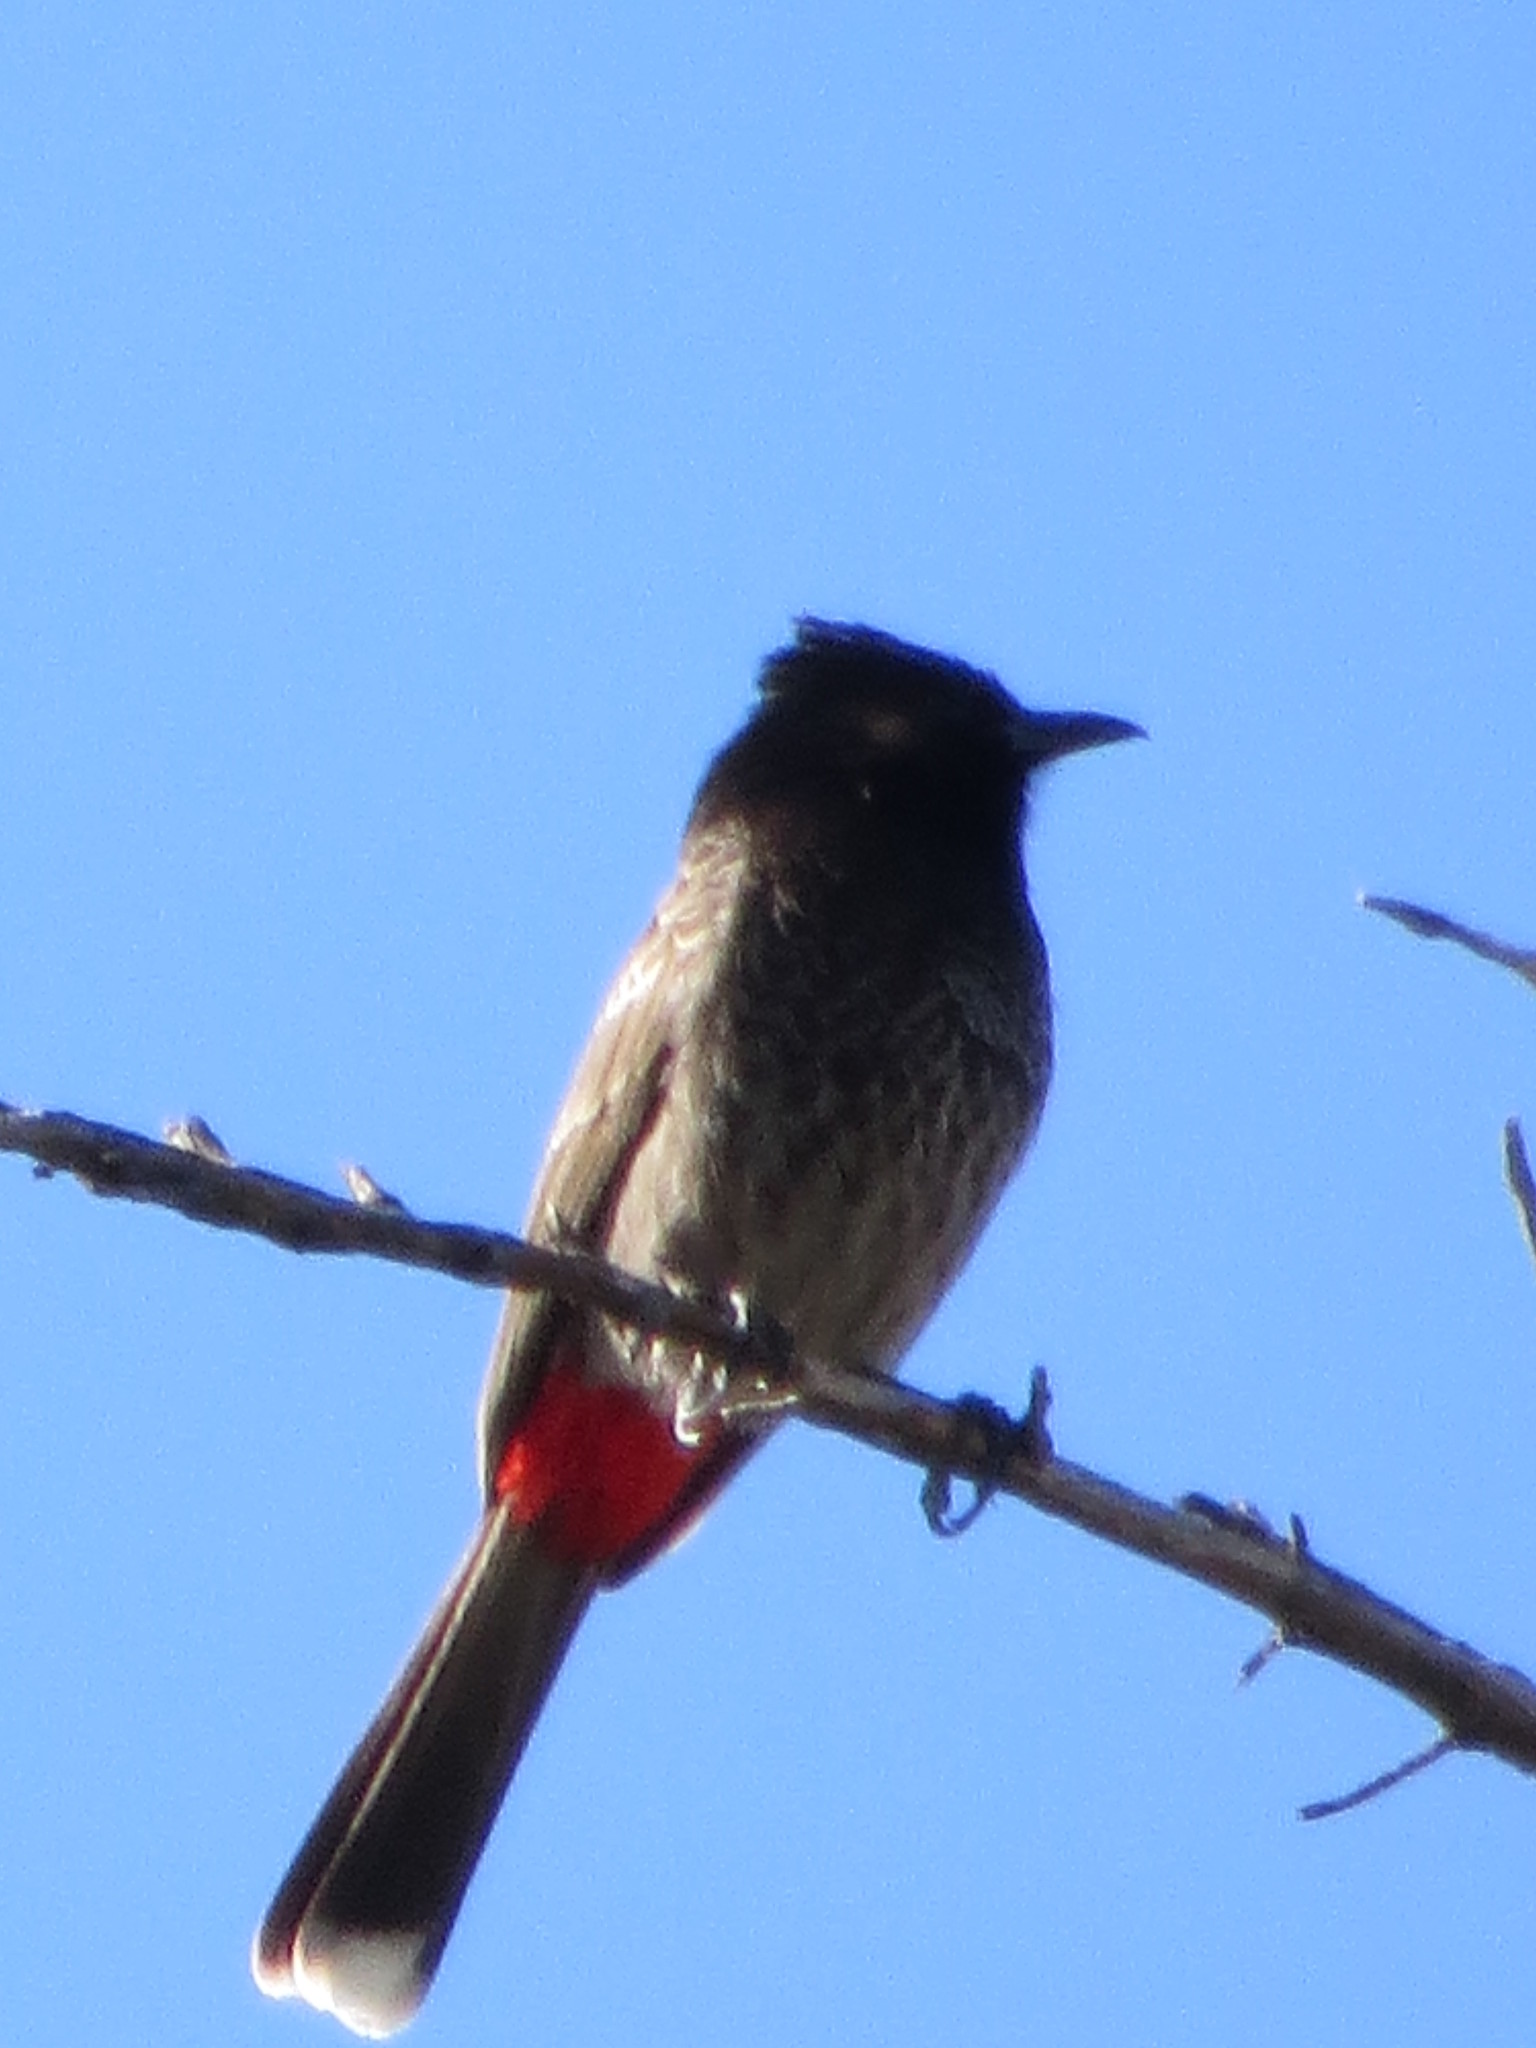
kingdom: Animalia
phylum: Chordata
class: Aves
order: Passeriformes
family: Pycnonotidae
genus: Pycnonotus
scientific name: Pycnonotus cafer
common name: Red-vented bulbul
